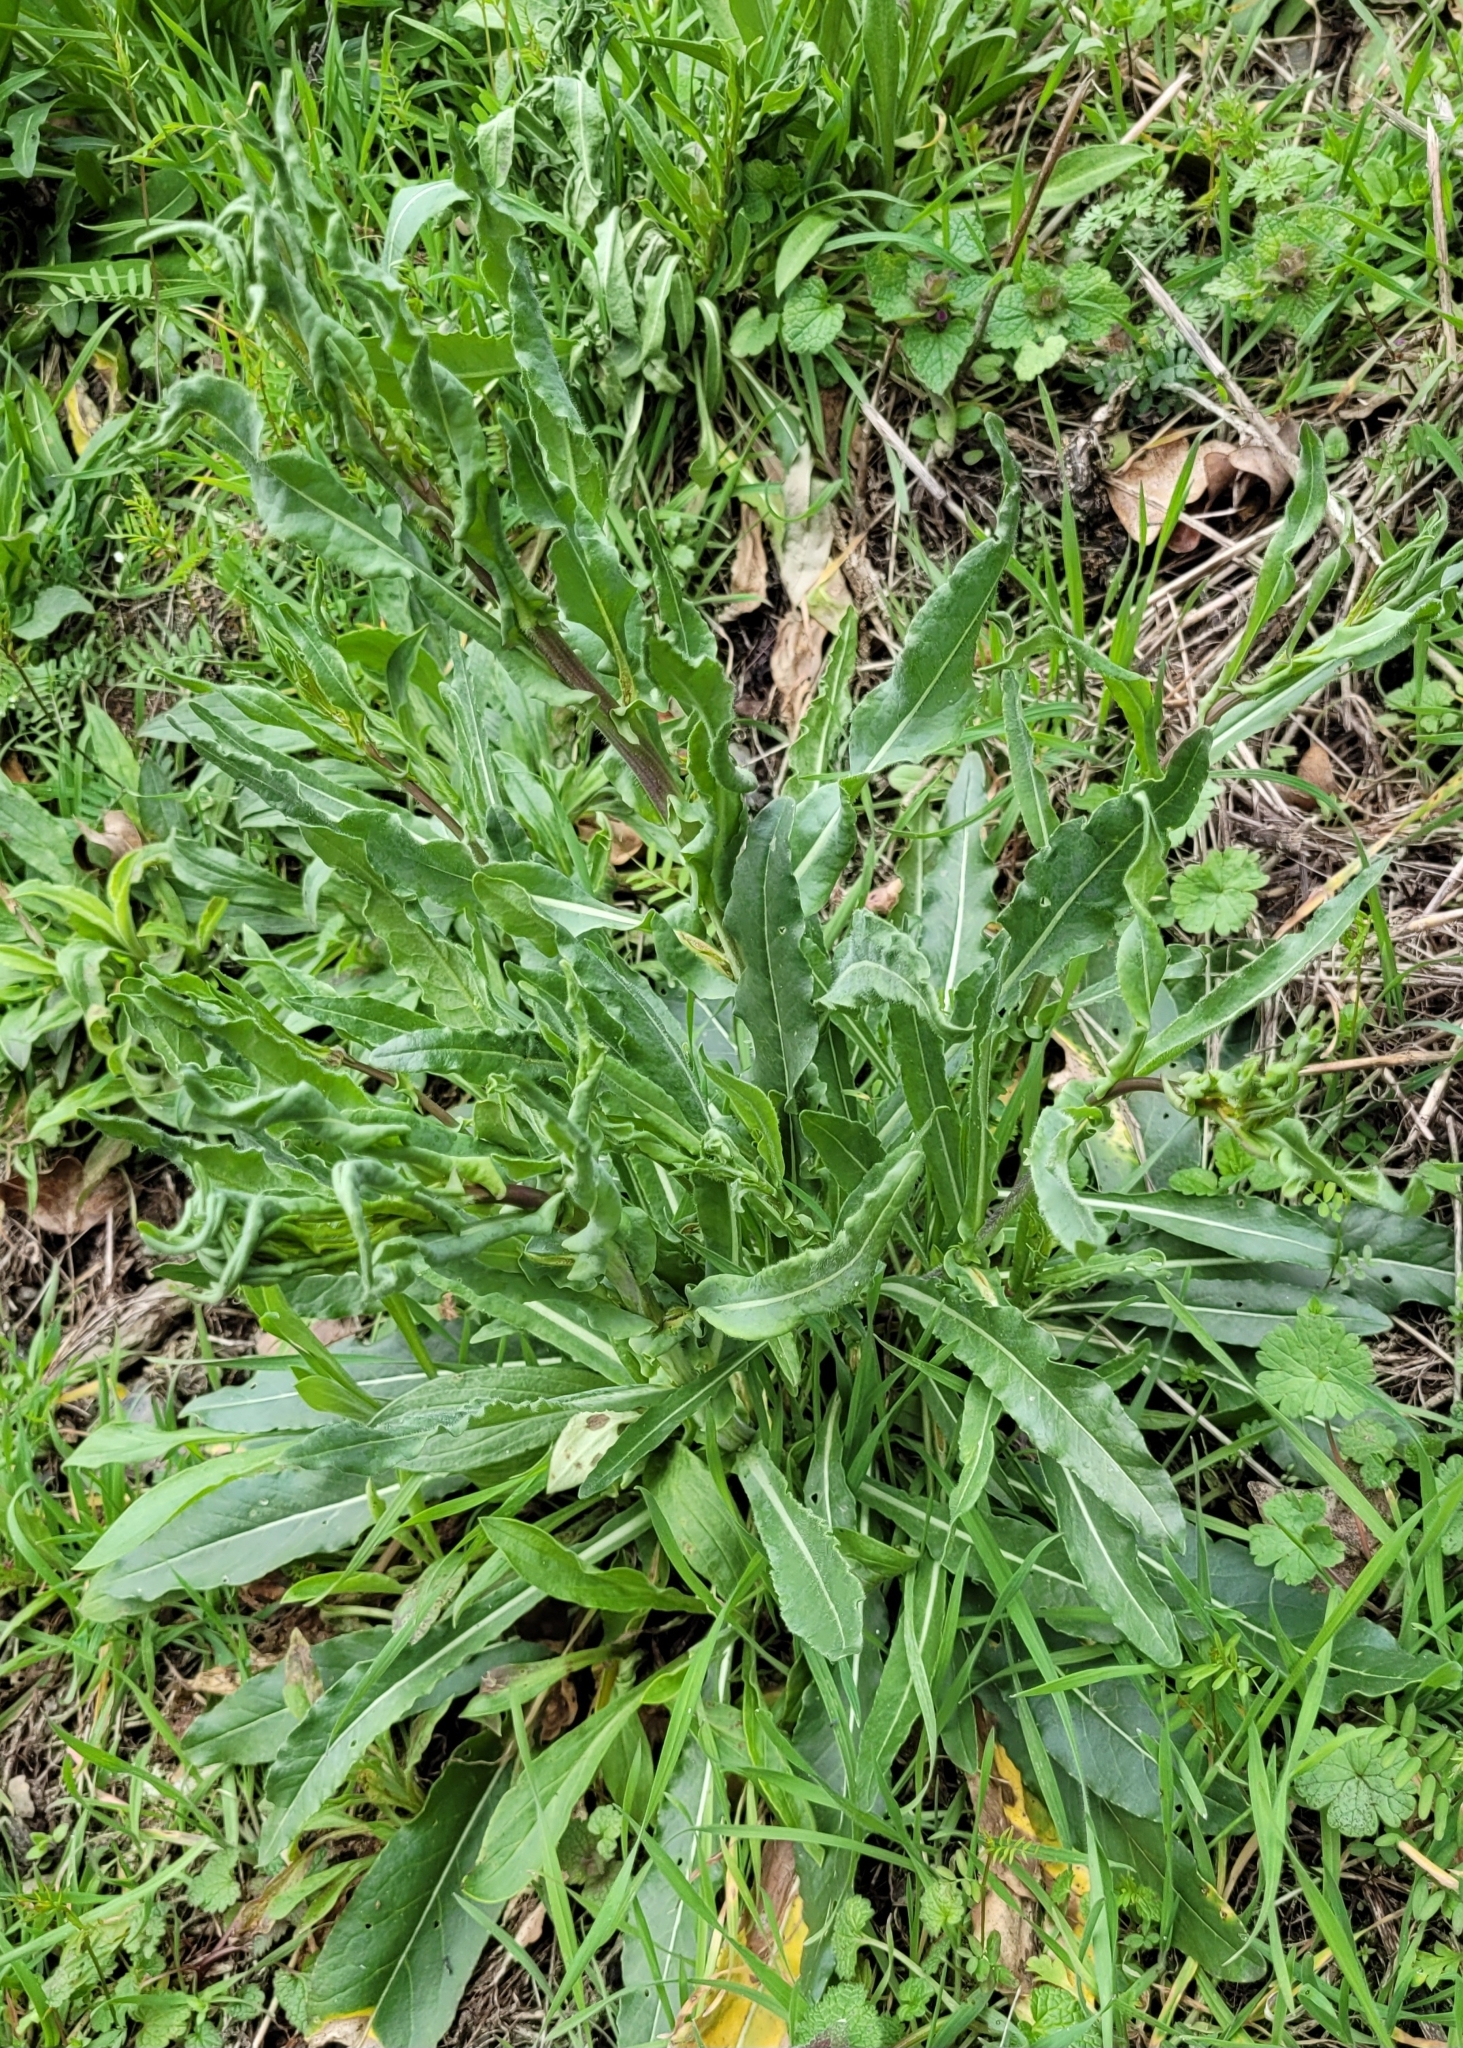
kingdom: Plantae
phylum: Tracheophyta
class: Magnoliopsida
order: Caryophyllales
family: Polygonaceae
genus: Rumex
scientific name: Rumex thyrsiflorus
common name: Garden sorrel
